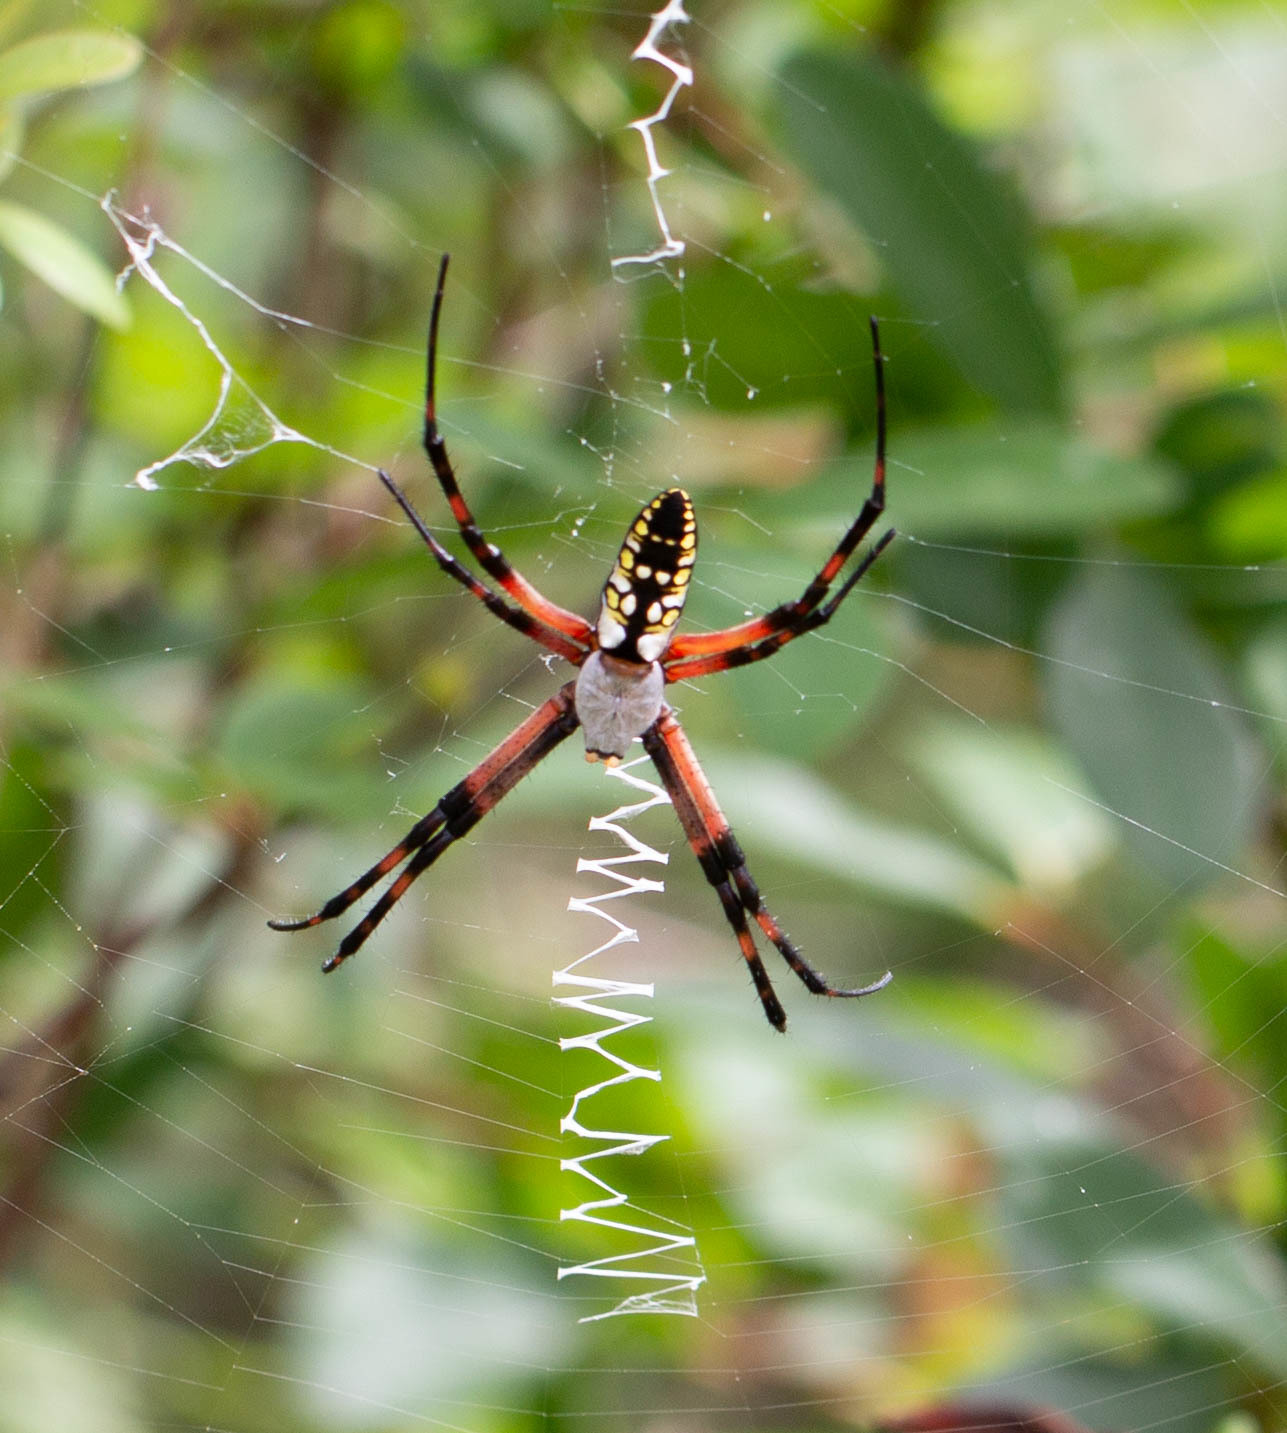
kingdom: Animalia
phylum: Arthropoda
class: Arachnida
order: Araneae
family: Araneidae
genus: Argiope
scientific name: Argiope aurantia
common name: Orb weavers
